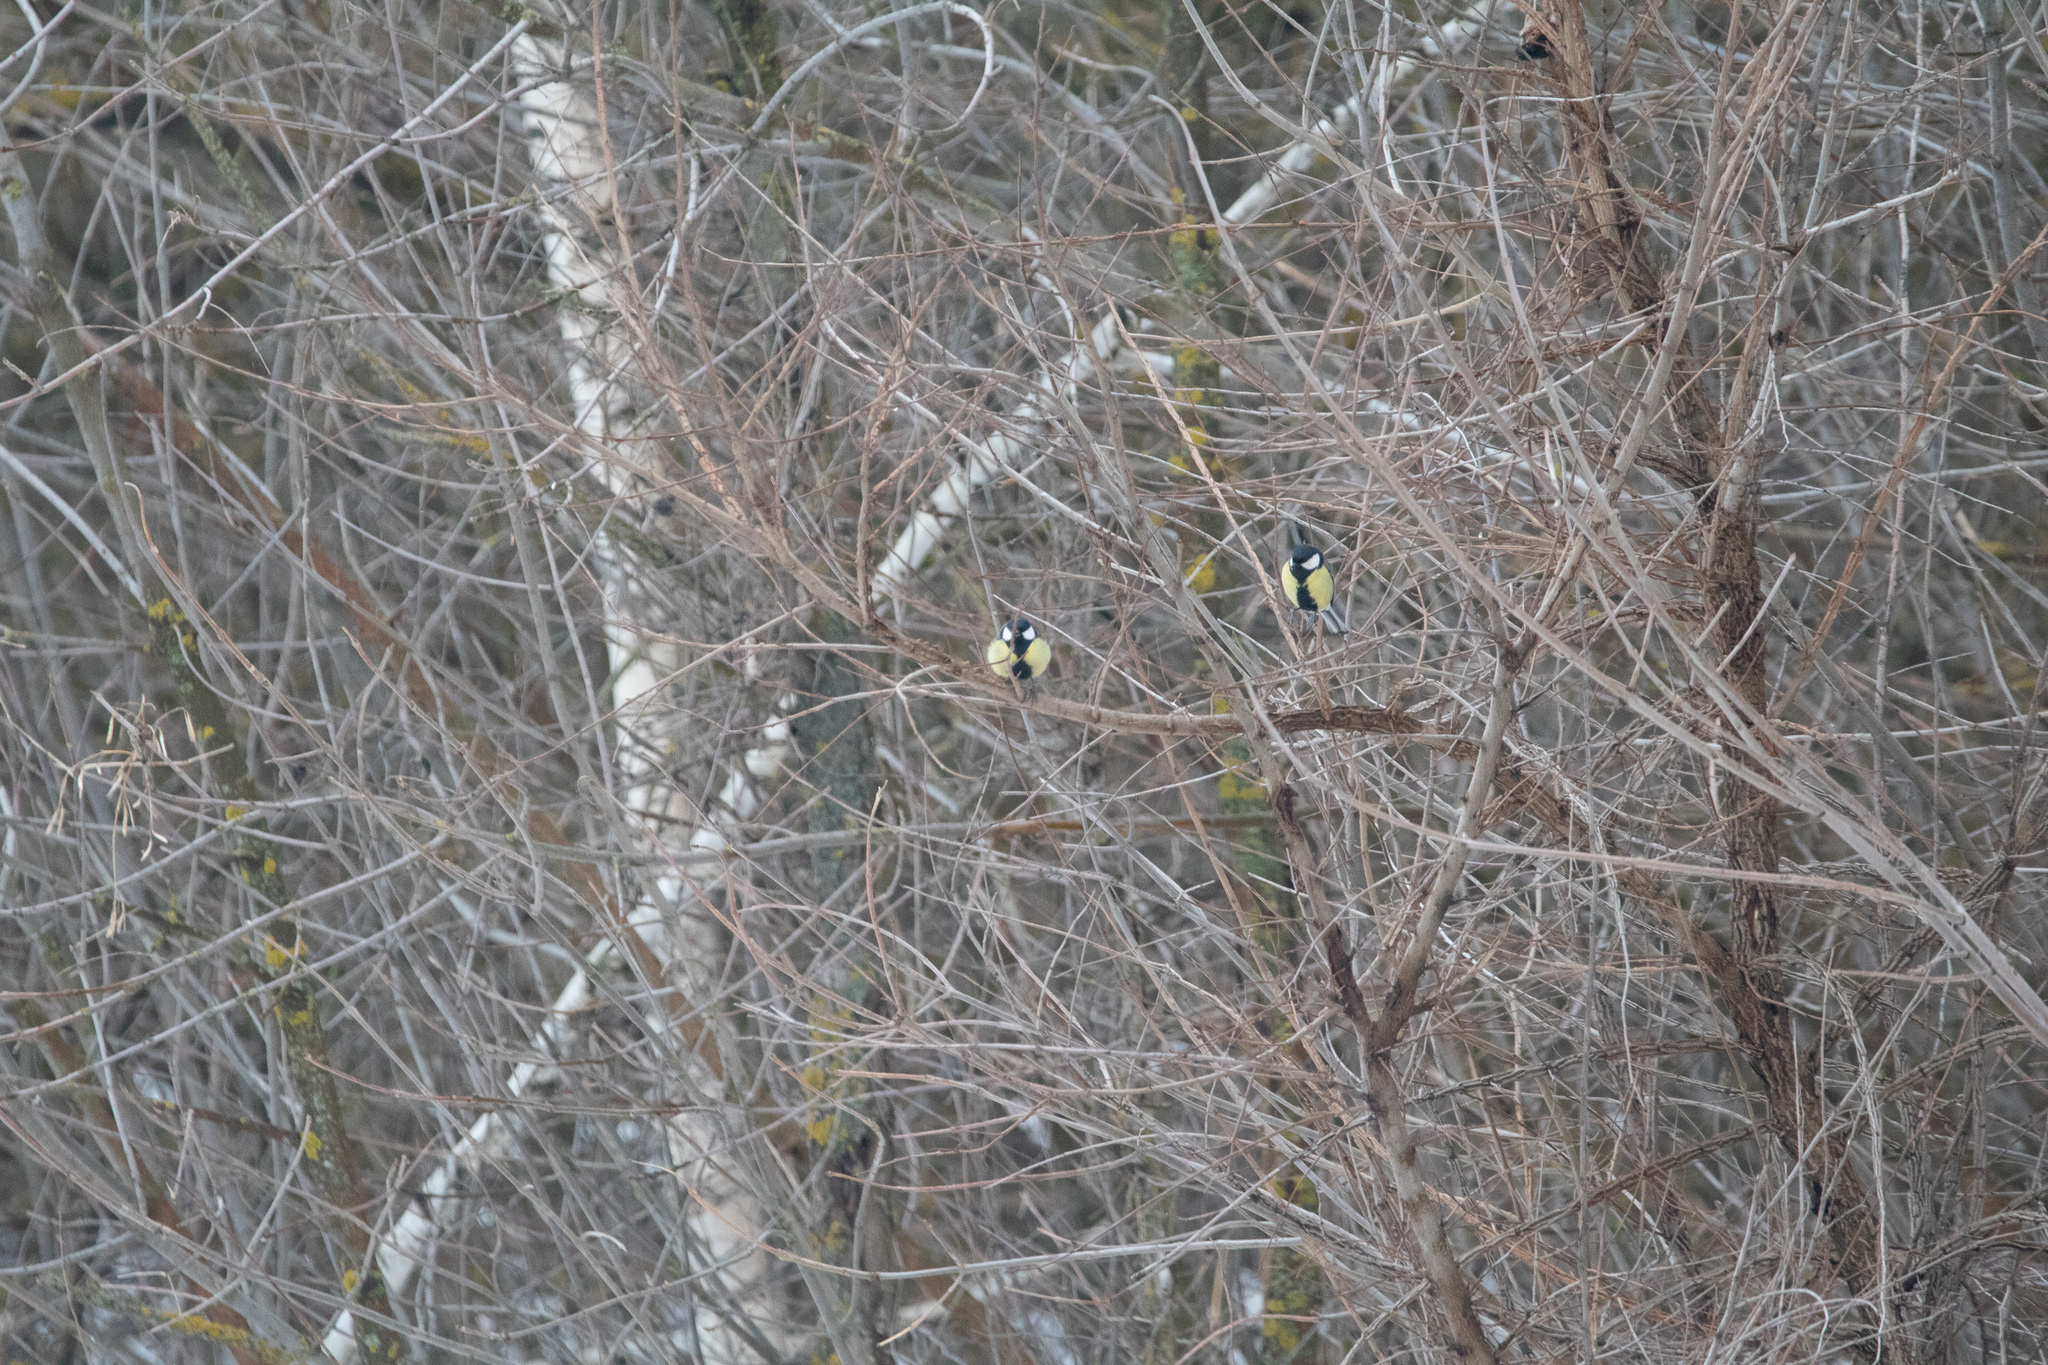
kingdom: Animalia
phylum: Chordata
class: Aves
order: Passeriformes
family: Paridae
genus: Parus
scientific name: Parus major
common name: Great tit
